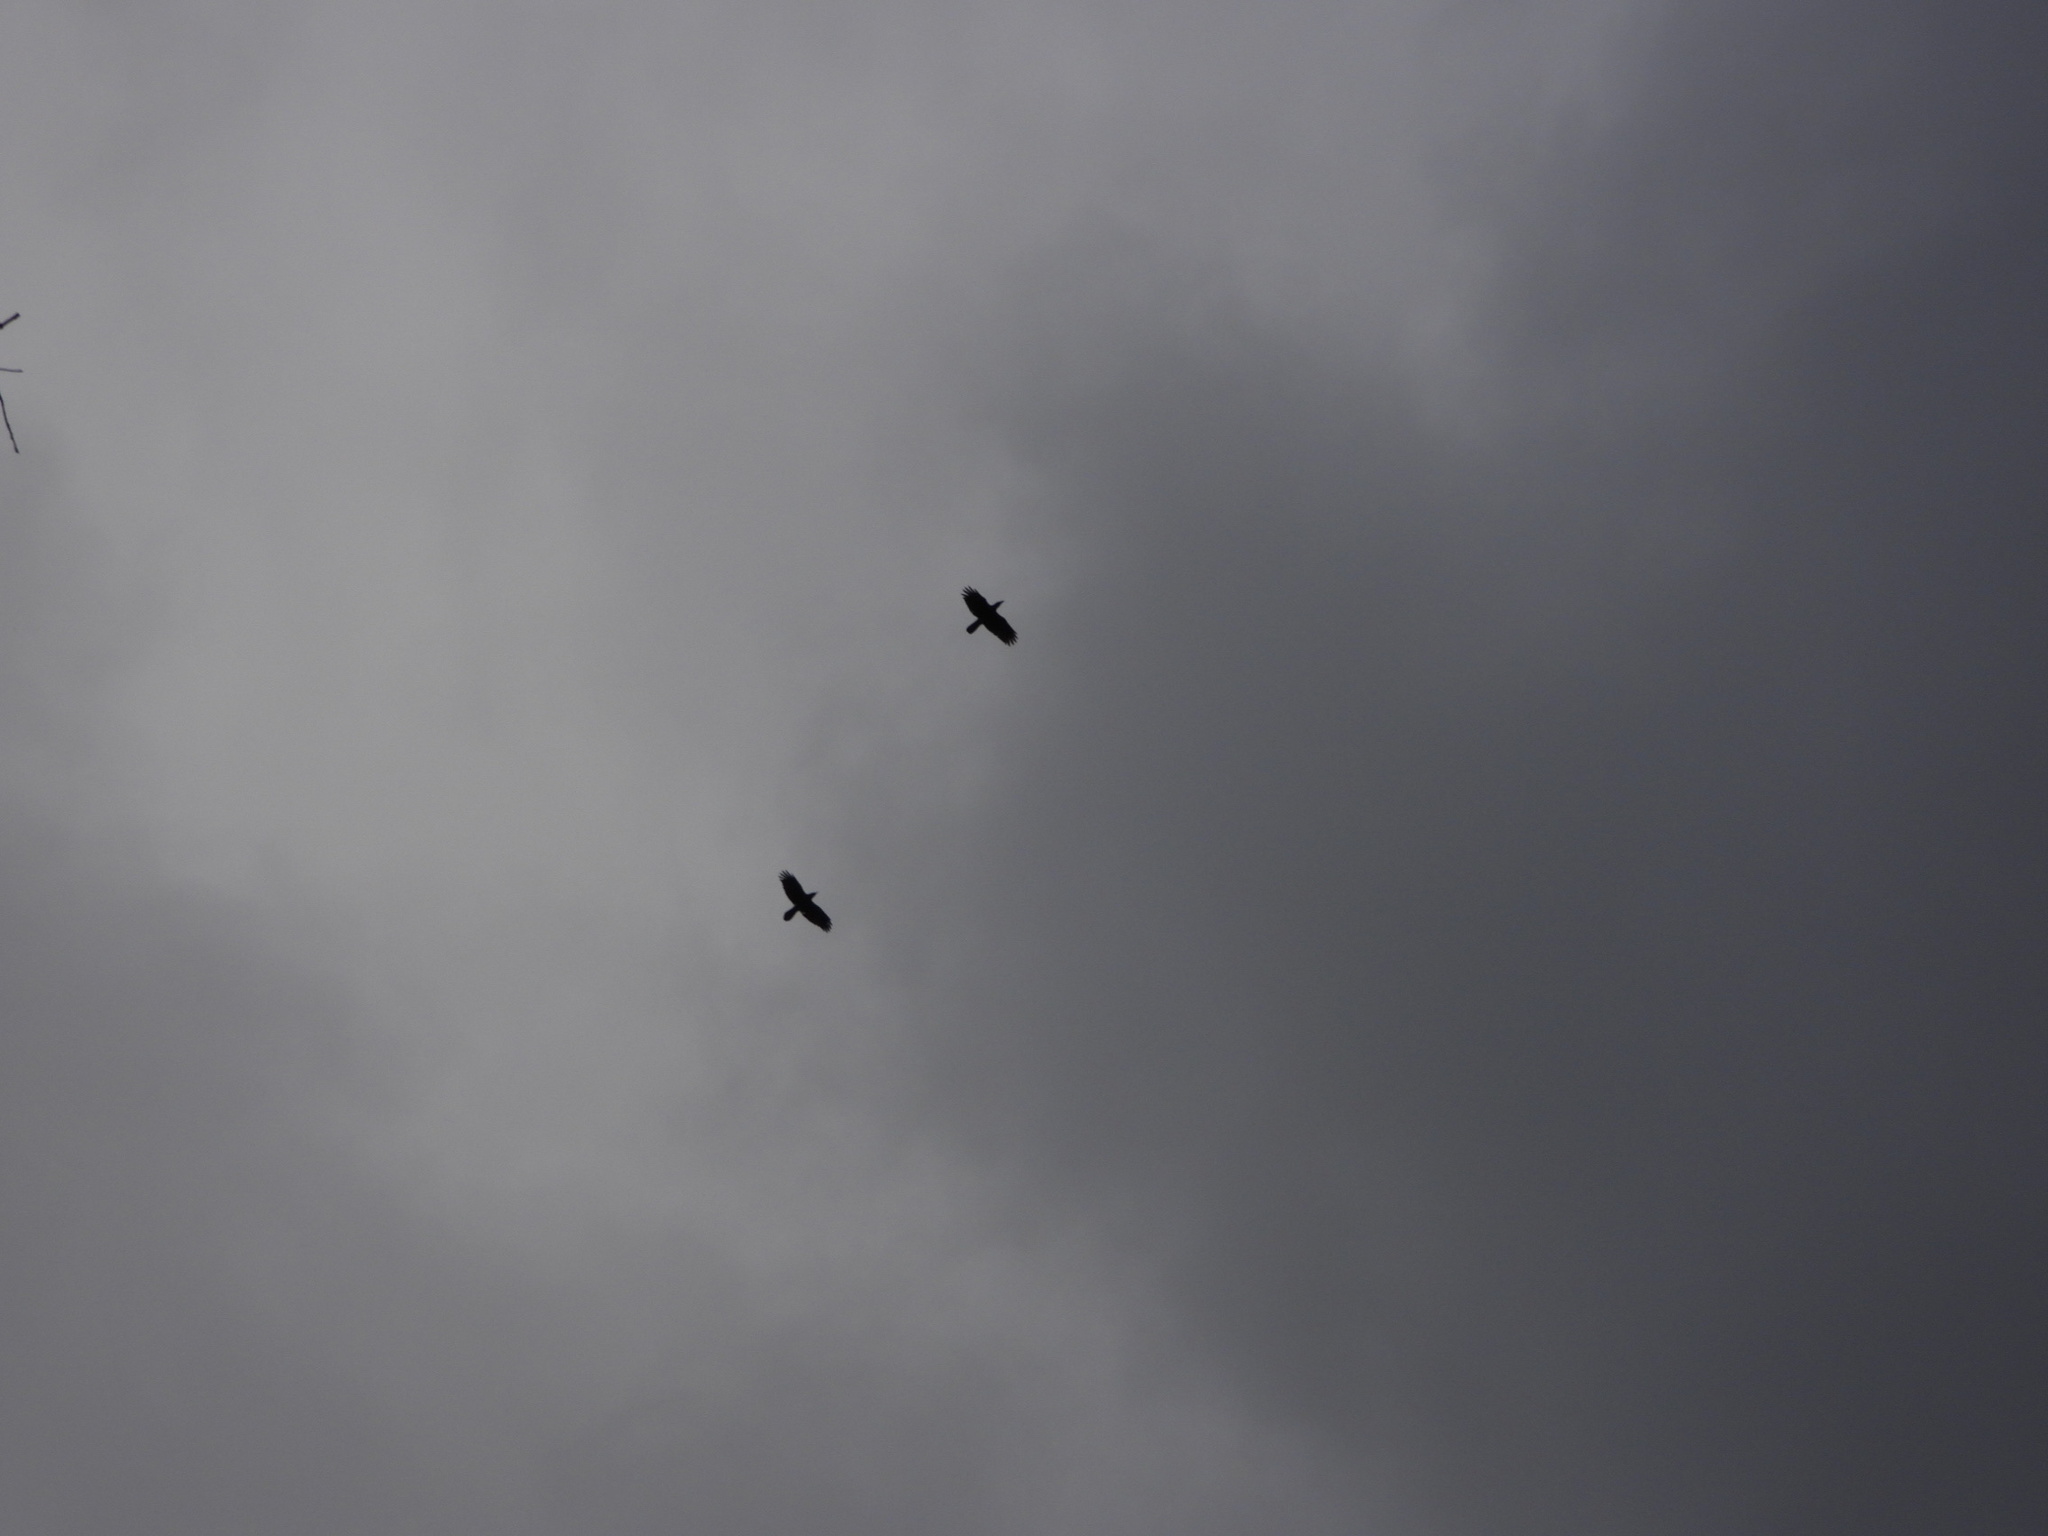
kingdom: Animalia
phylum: Chordata
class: Aves
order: Passeriformes
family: Corvidae
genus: Corvus
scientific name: Corvus corax
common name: Common raven
